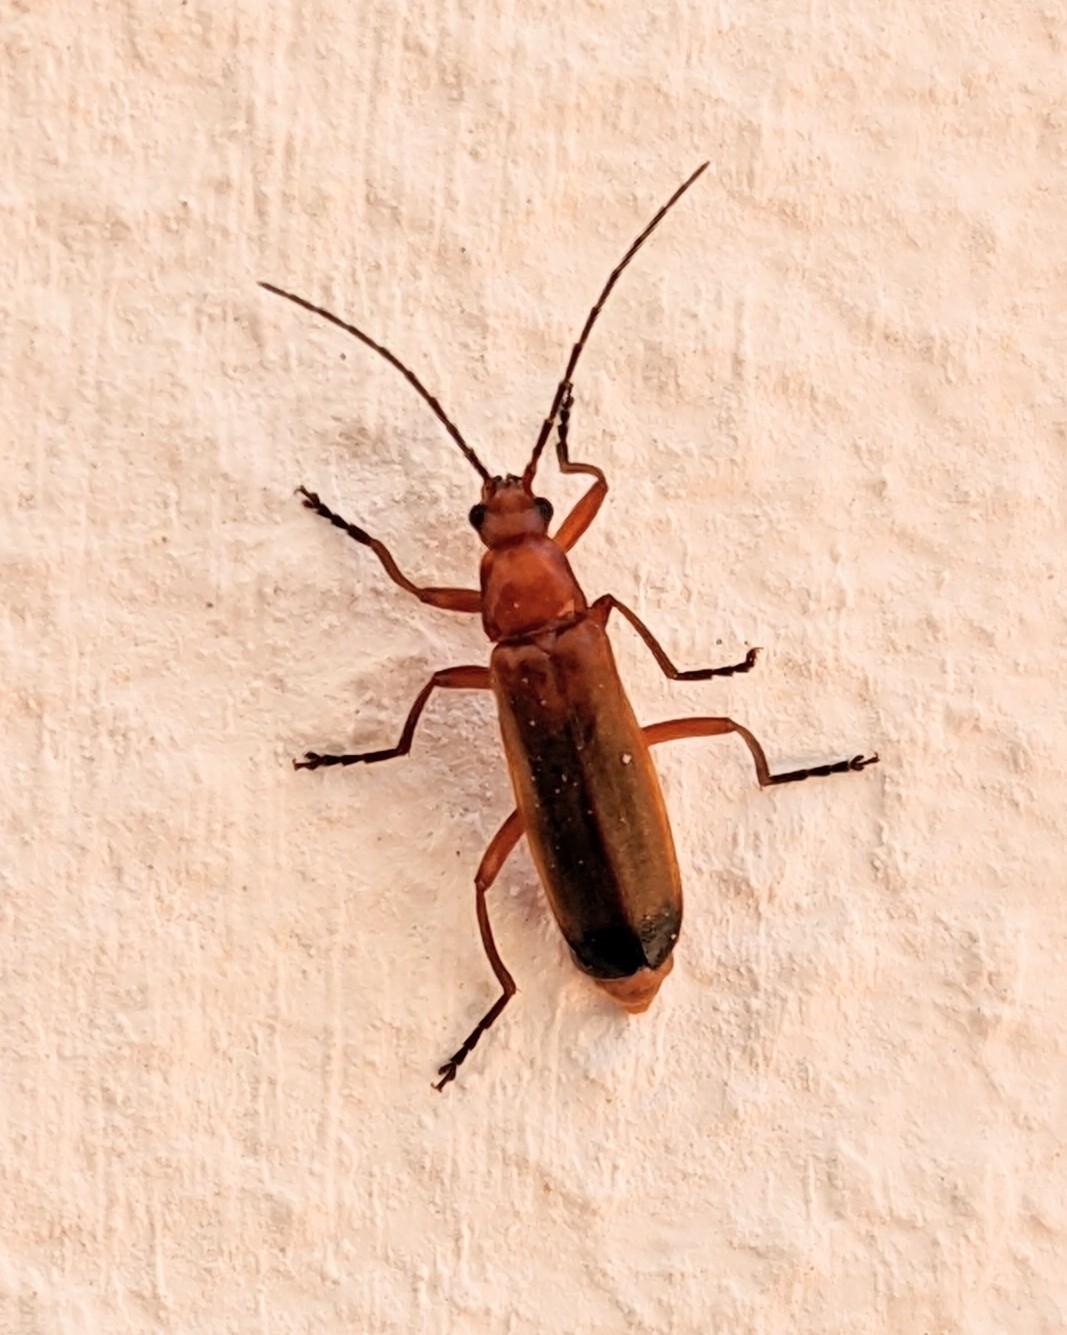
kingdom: Animalia
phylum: Arthropoda
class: Insecta
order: Coleoptera
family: Cantharidae
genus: Rhagonycha
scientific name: Rhagonycha fulva
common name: Common red soldier beetle
